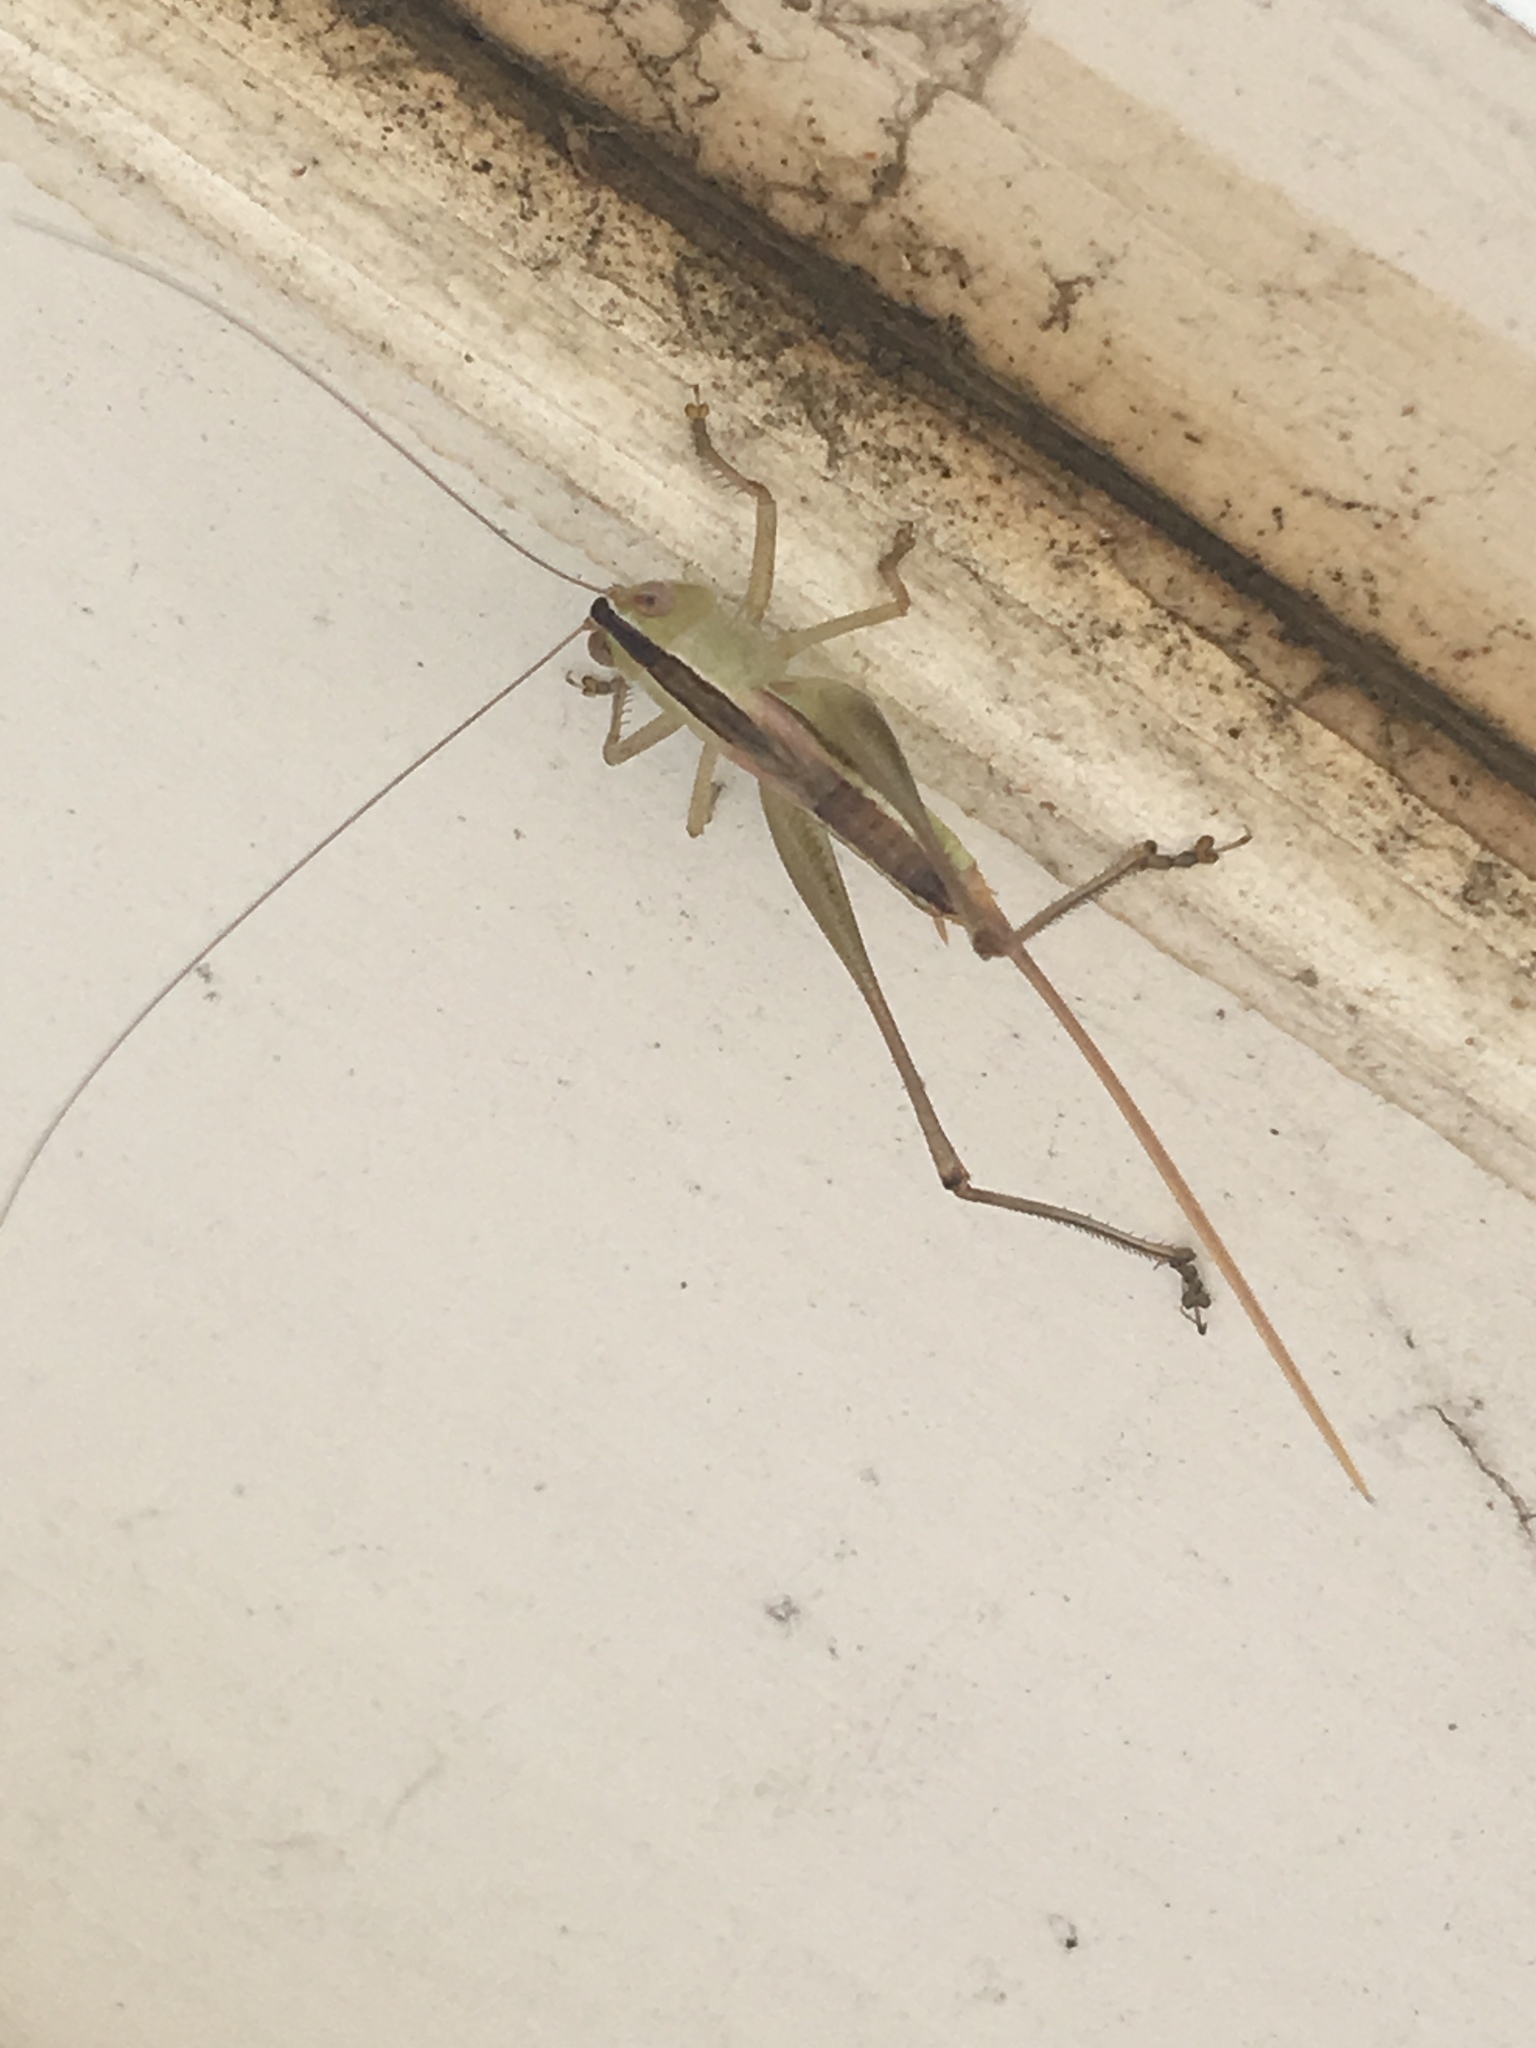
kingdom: Animalia
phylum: Arthropoda
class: Insecta
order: Orthoptera
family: Tettigoniidae
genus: Conocephalus
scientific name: Conocephalus strictus
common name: Straight-lanced katydid
